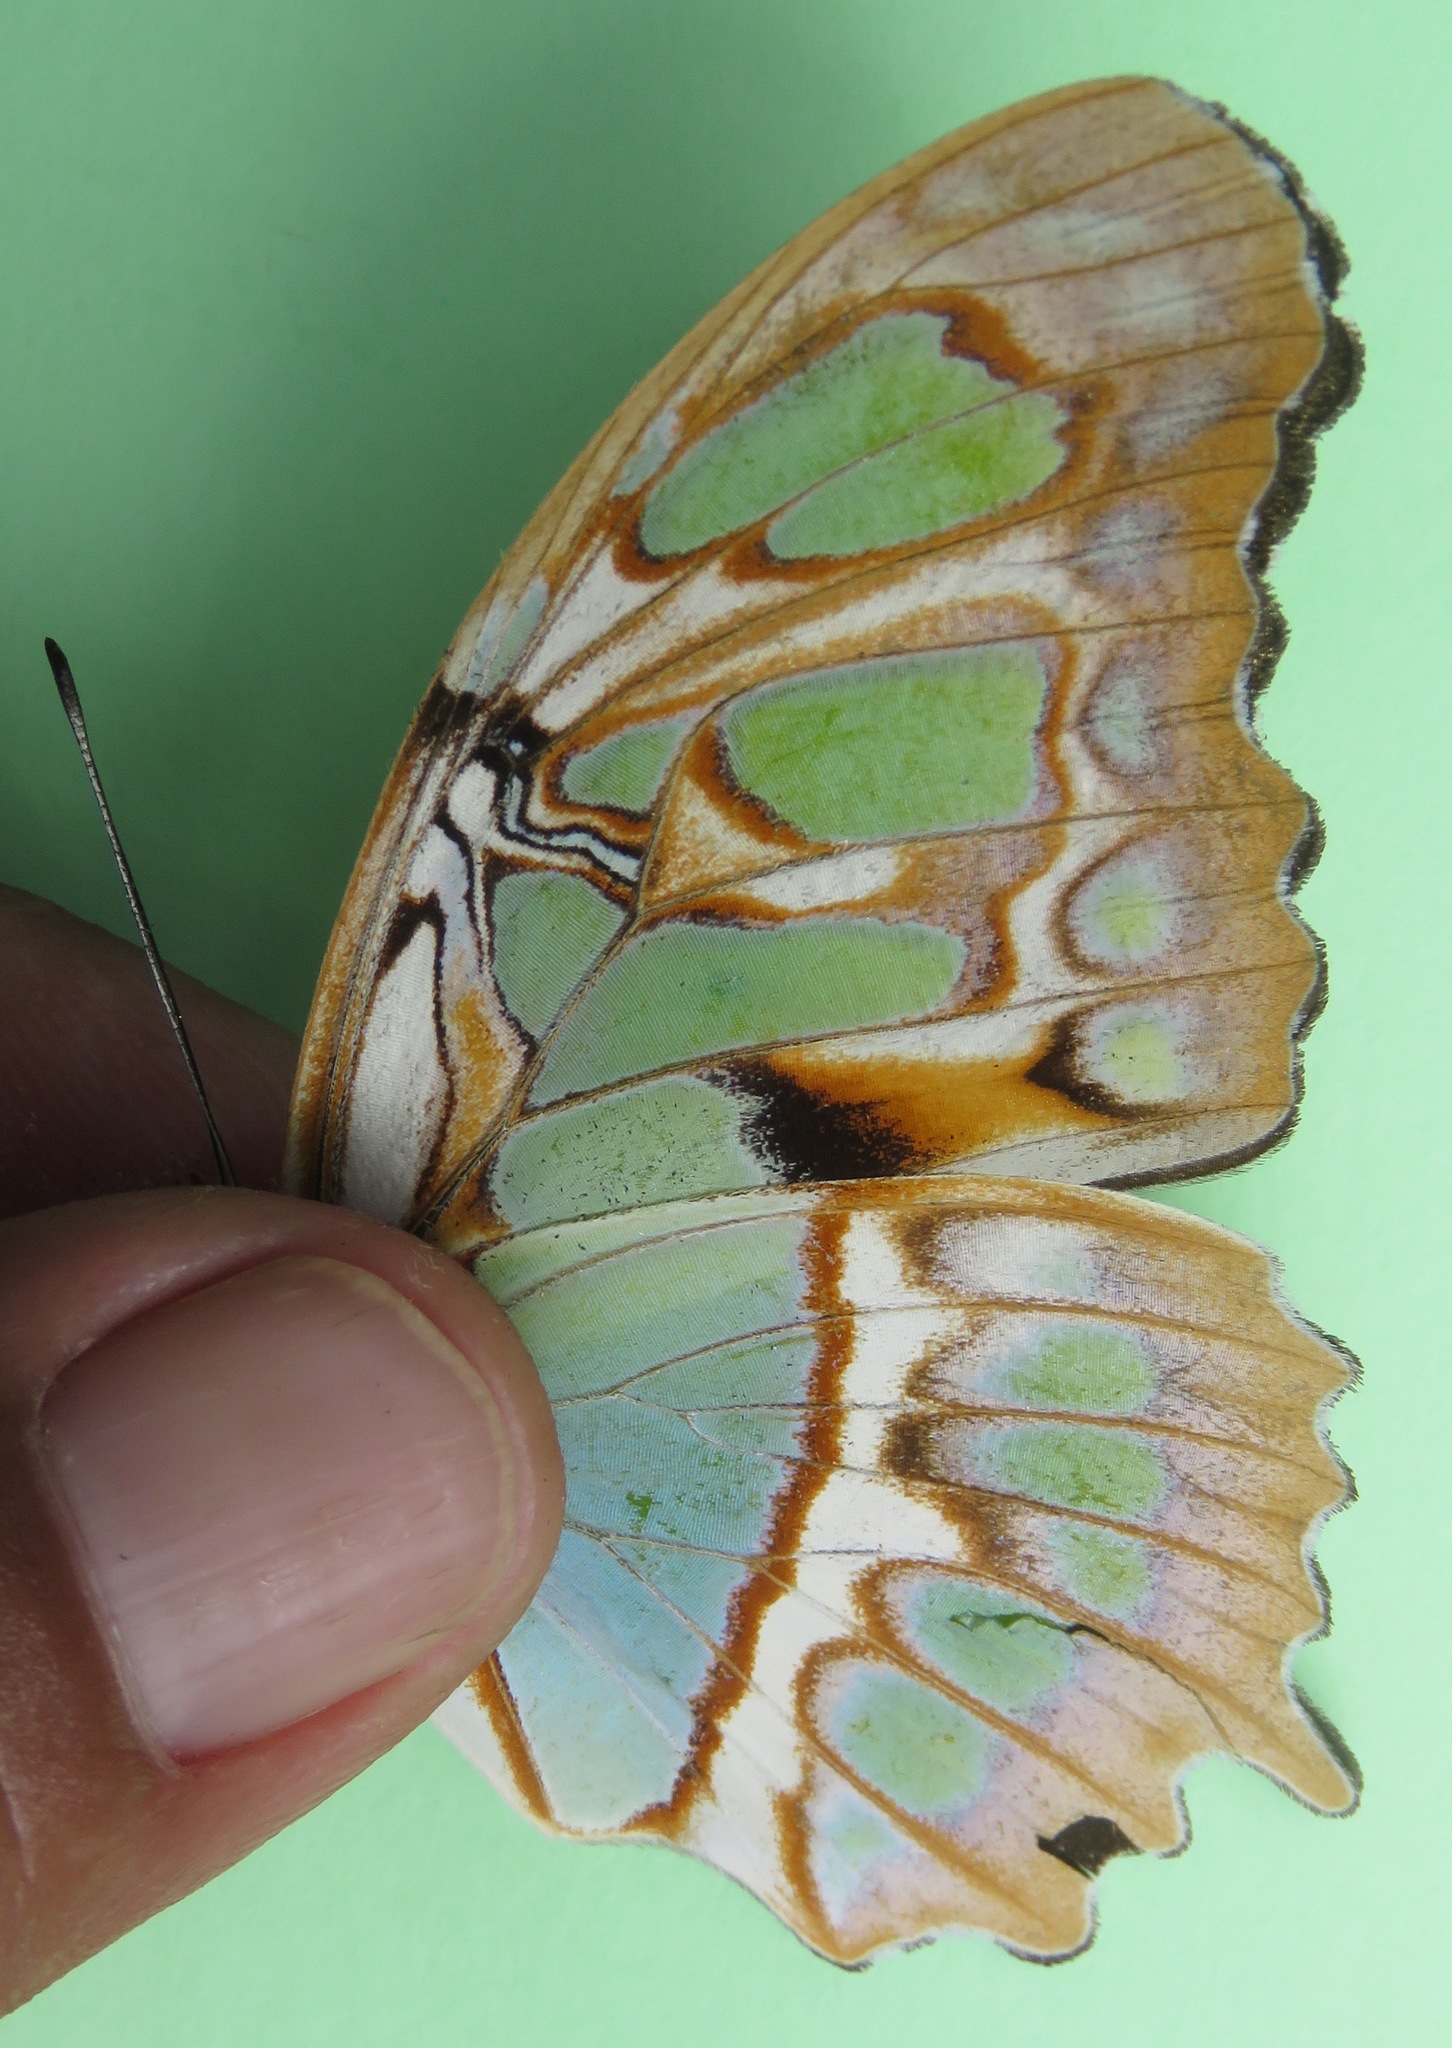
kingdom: Animalia
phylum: Arthropoda
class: Insecta
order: Lepidoptera
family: Nymphalidae
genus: Siproeta
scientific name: Siproeta stelenes
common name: Malachite
